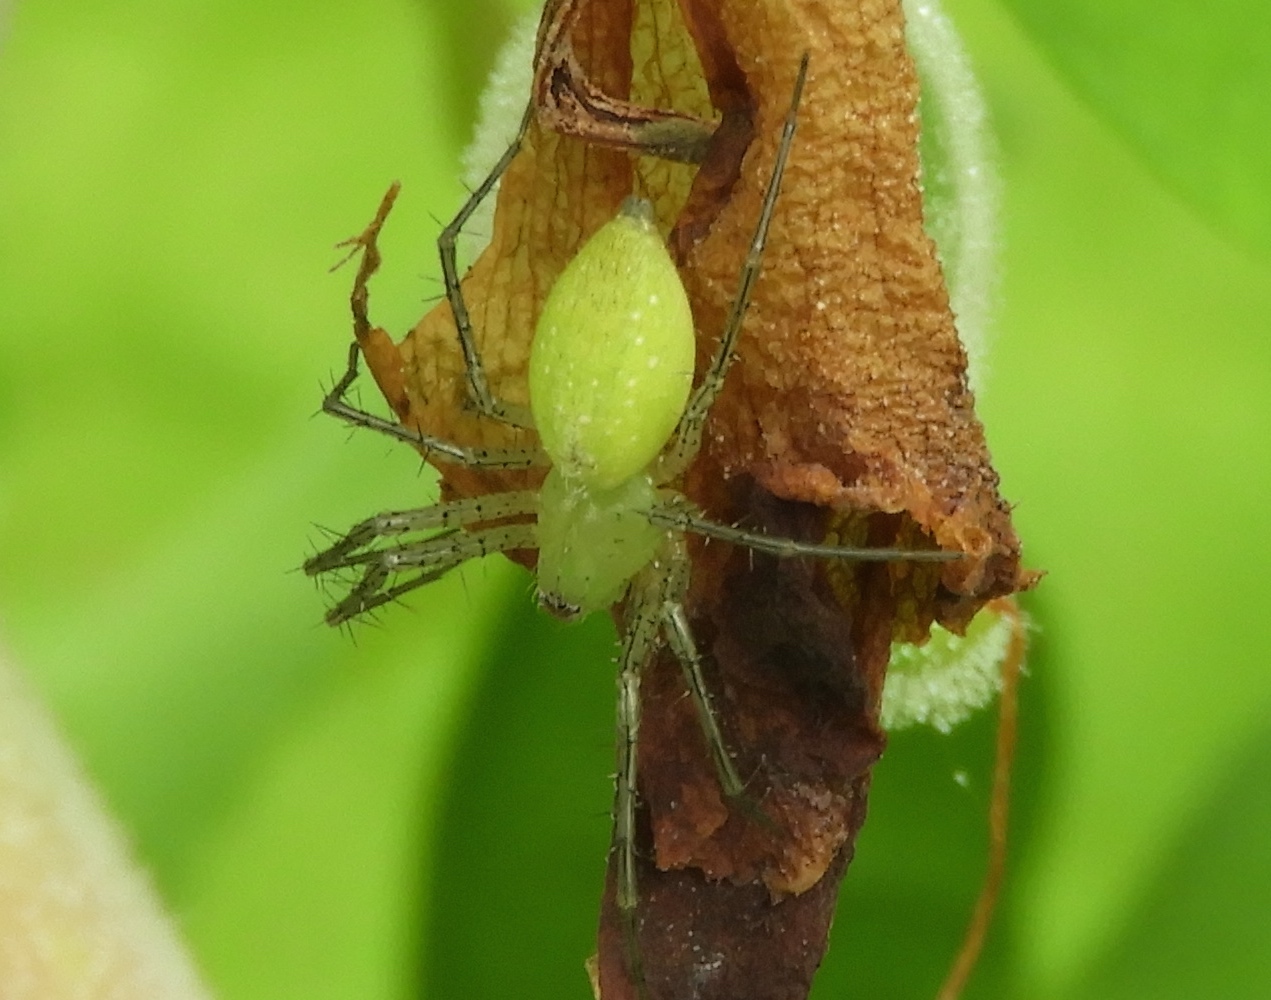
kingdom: Animalia
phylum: Arthropoda
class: Arachnida
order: Araneae
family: Oxyopidae
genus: Peucetia
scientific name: Peucetia
